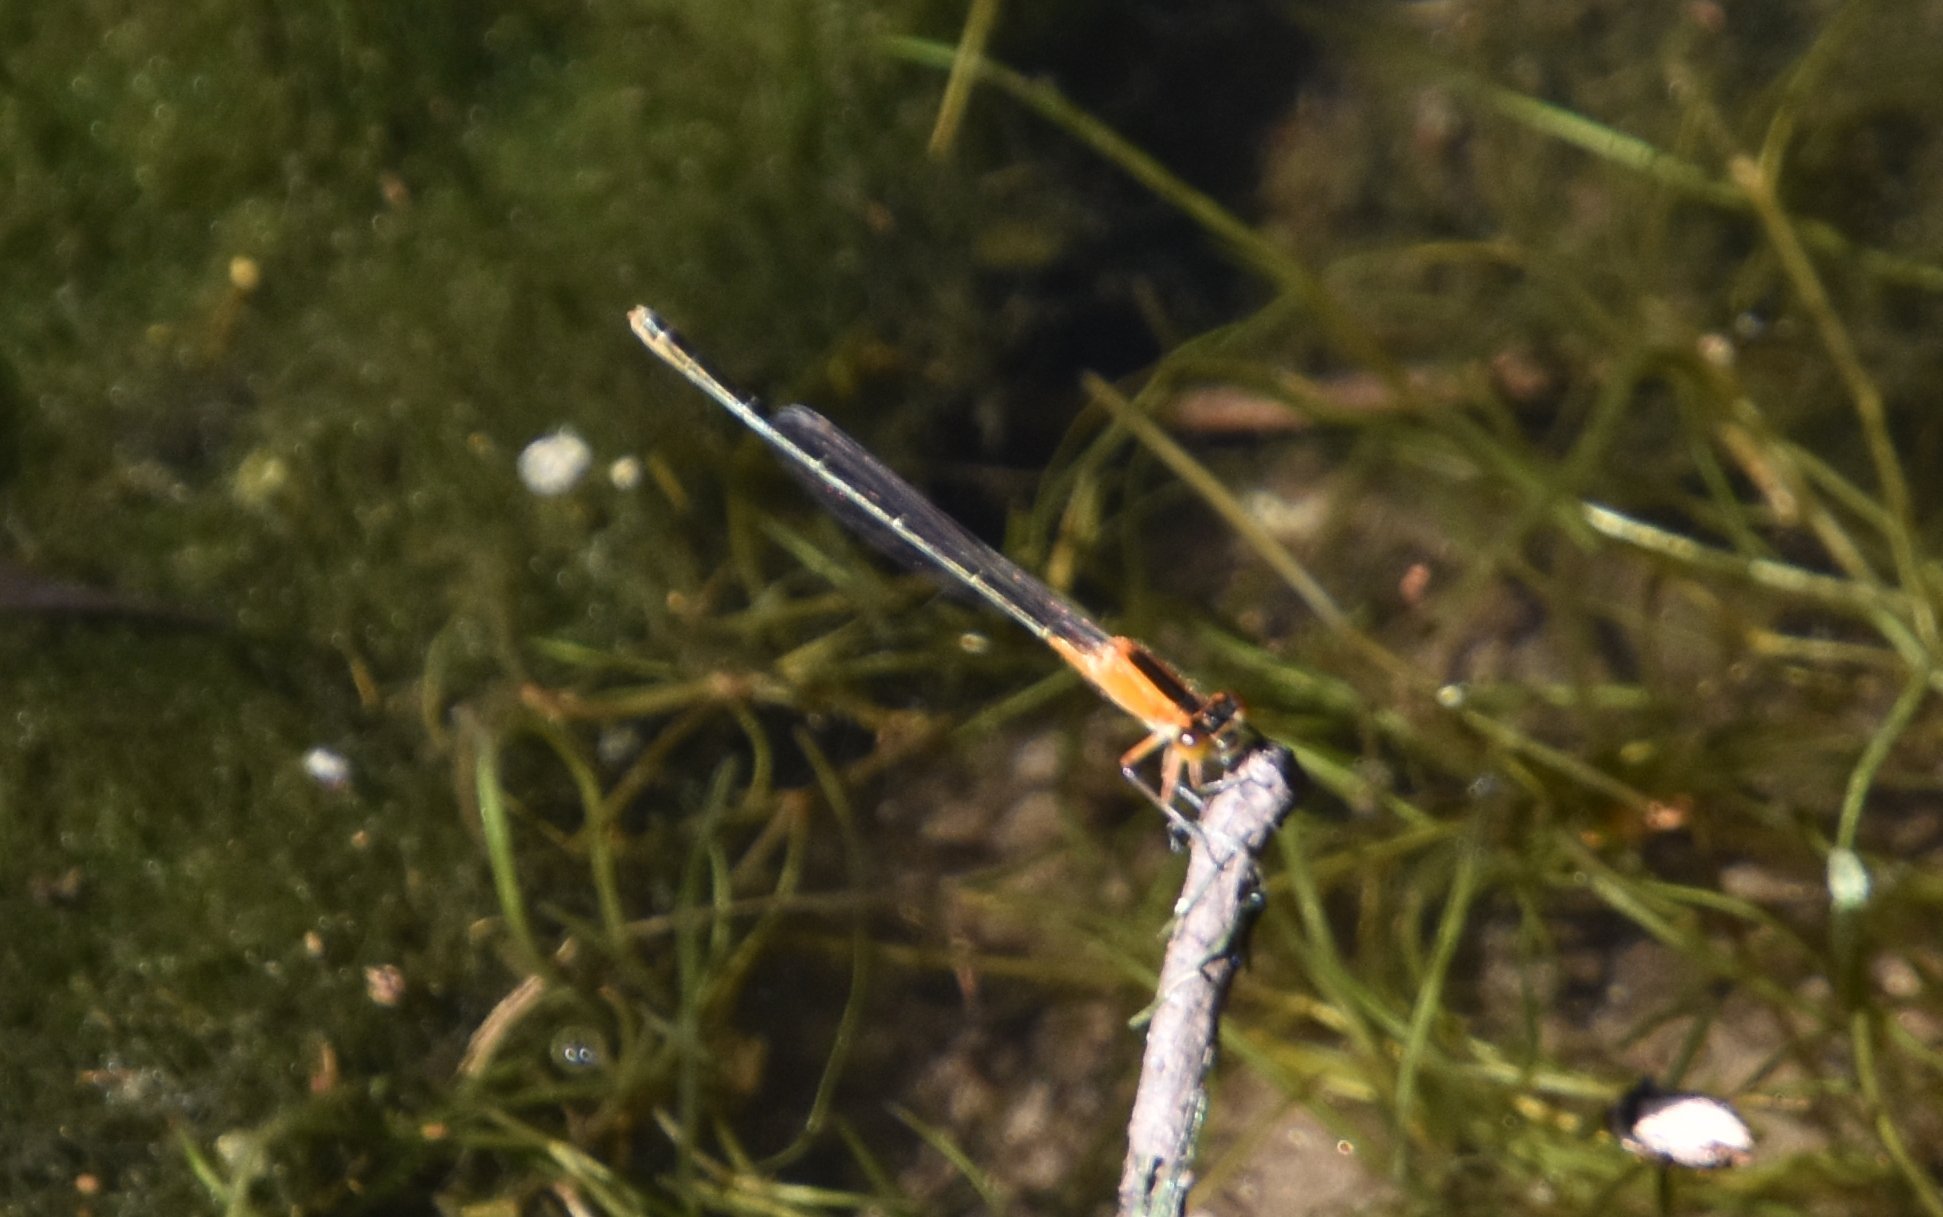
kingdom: Animalia
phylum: Arthropoda
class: Insecta
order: Odonata
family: Coenagrionidae
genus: Ischnura
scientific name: Ischnura ramburii
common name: Rambur's forktail
